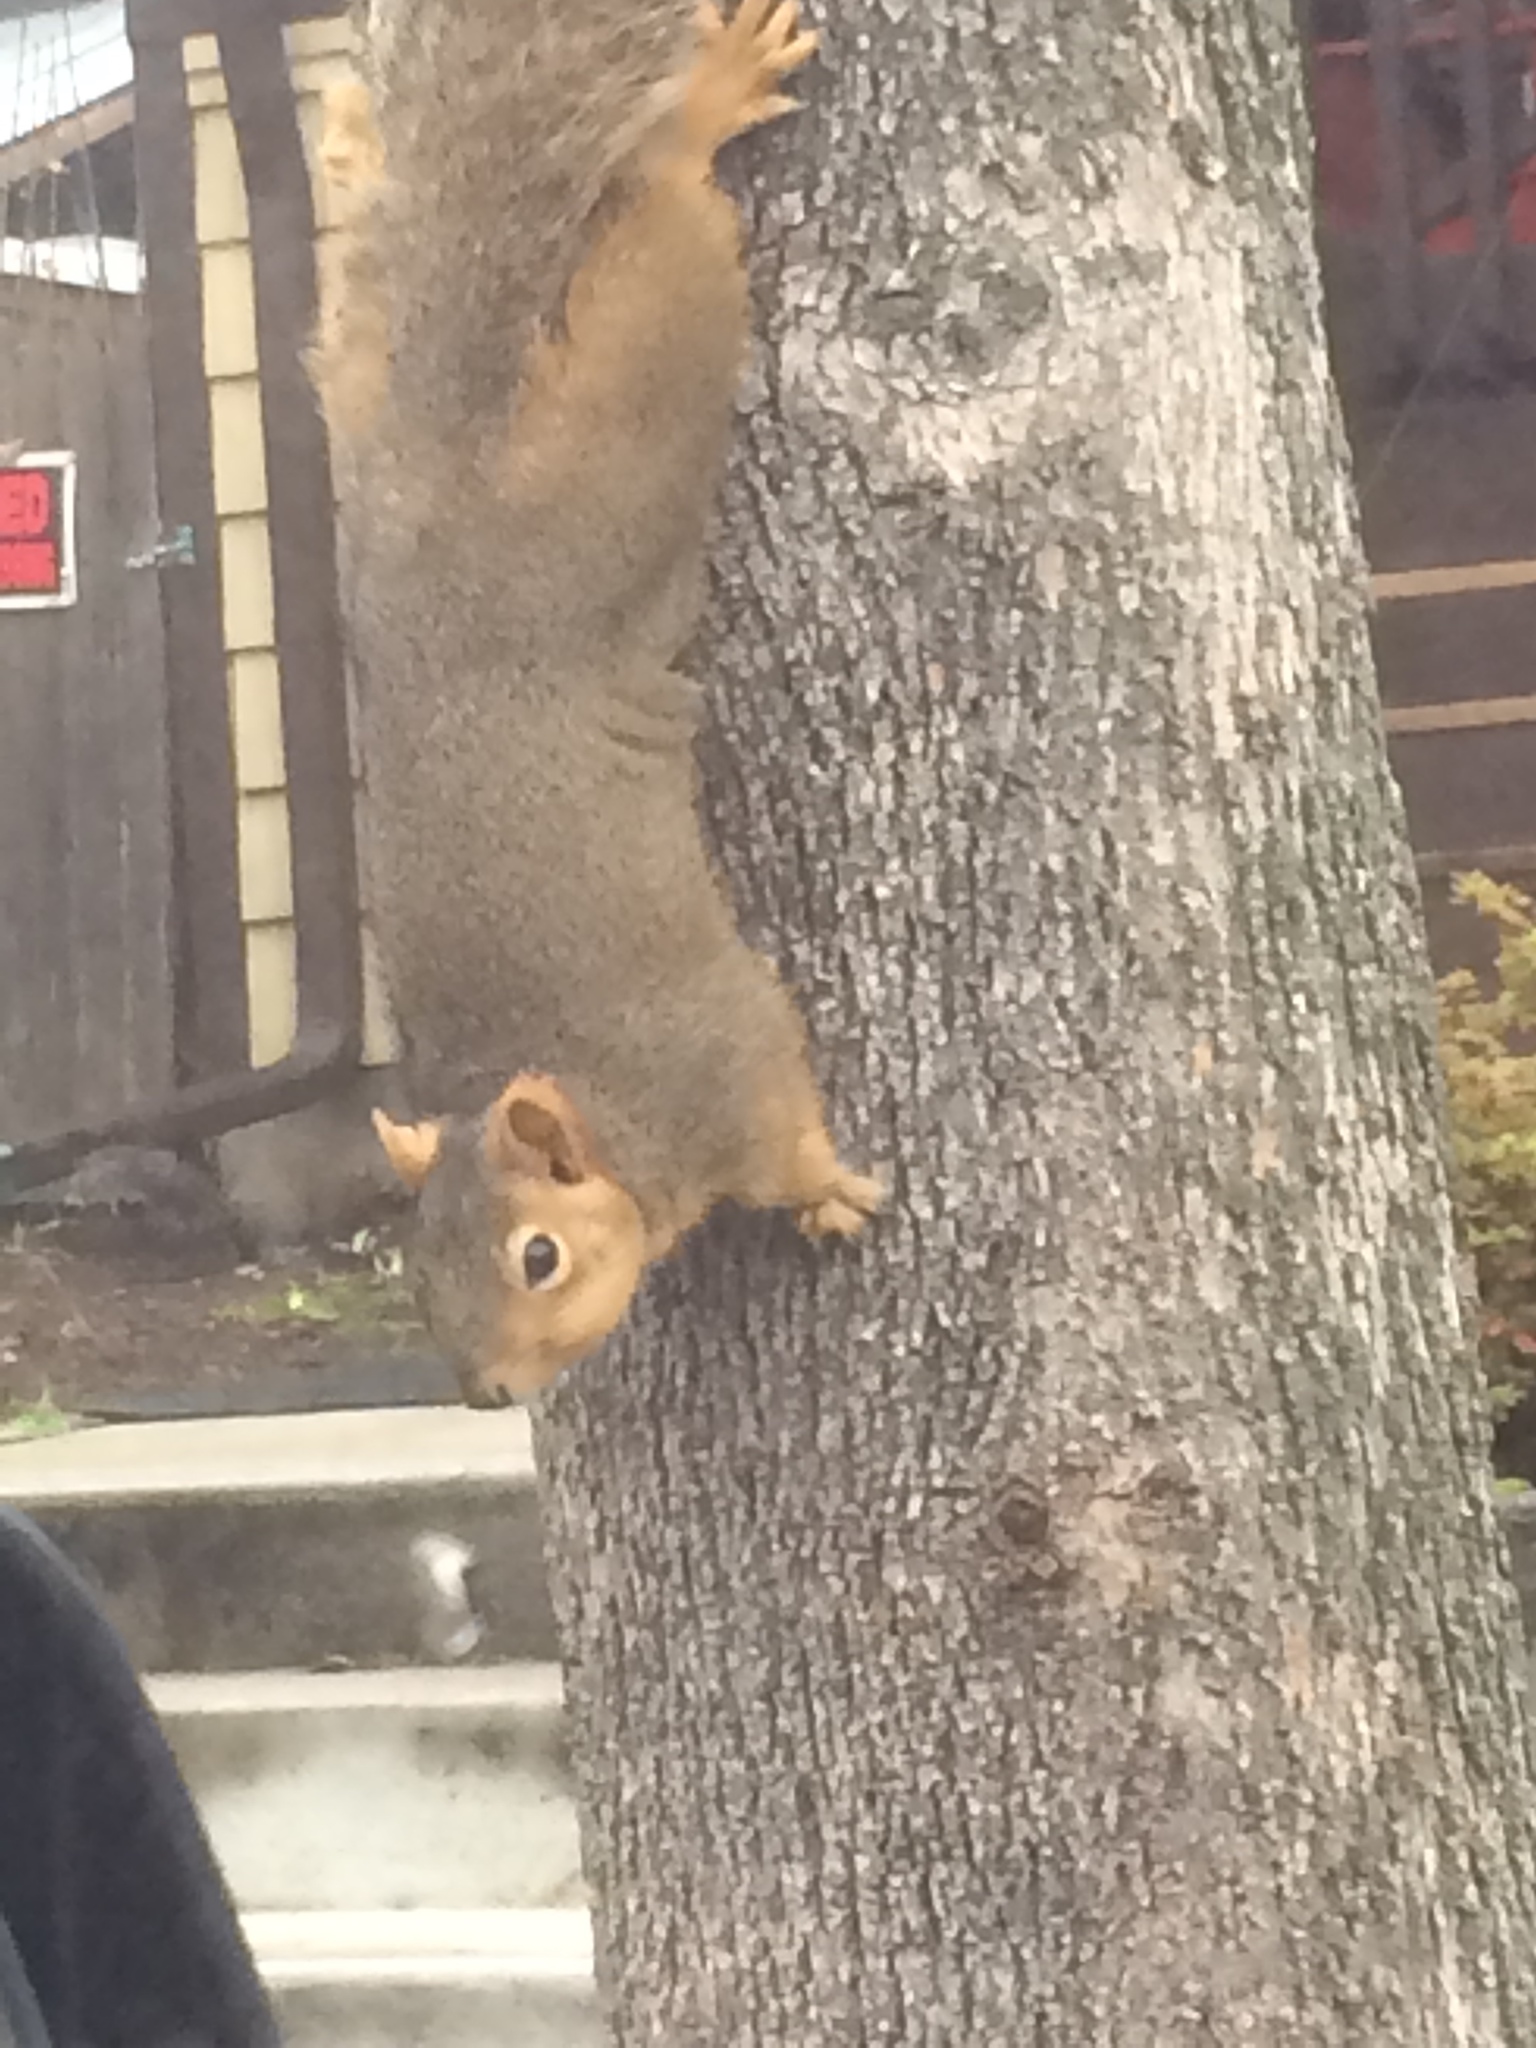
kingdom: Animalia
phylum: Chordata
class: Mammalia
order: Rodentia
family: Sciuridae
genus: Sciurus
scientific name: Sciurus niger
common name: Fox squirrel
